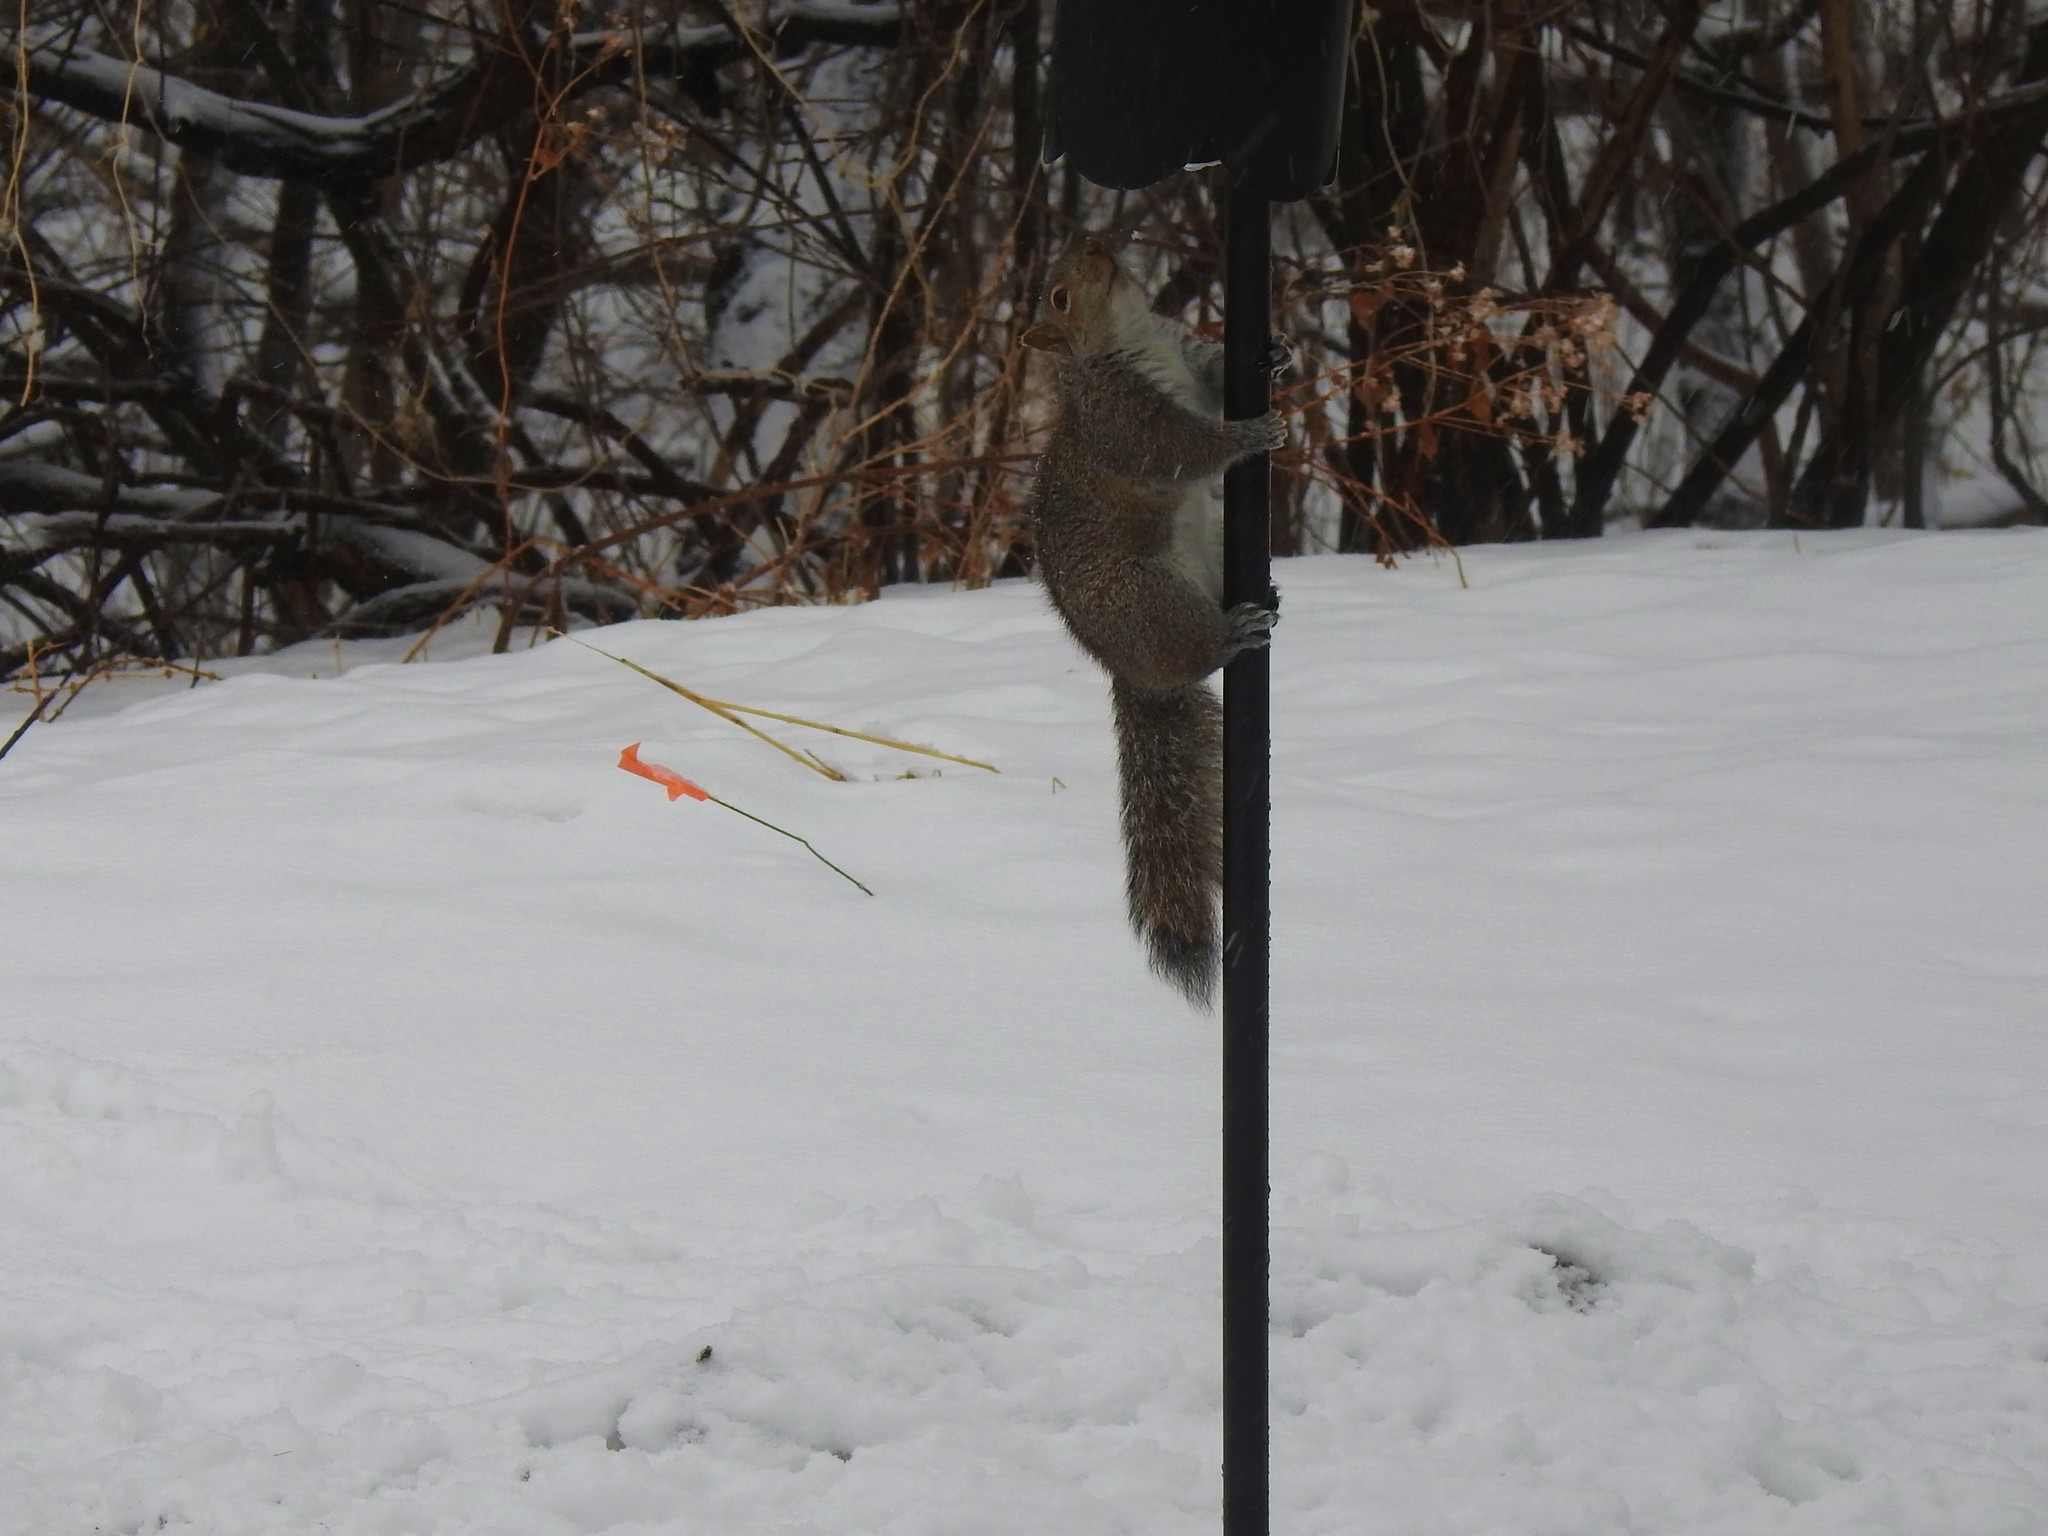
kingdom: Animalia
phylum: Chordata
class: Mammalia
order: Rodentia
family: Sciuridae
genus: Sciurus
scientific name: Sciurus carolinensis
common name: Eastern gray squirrel
